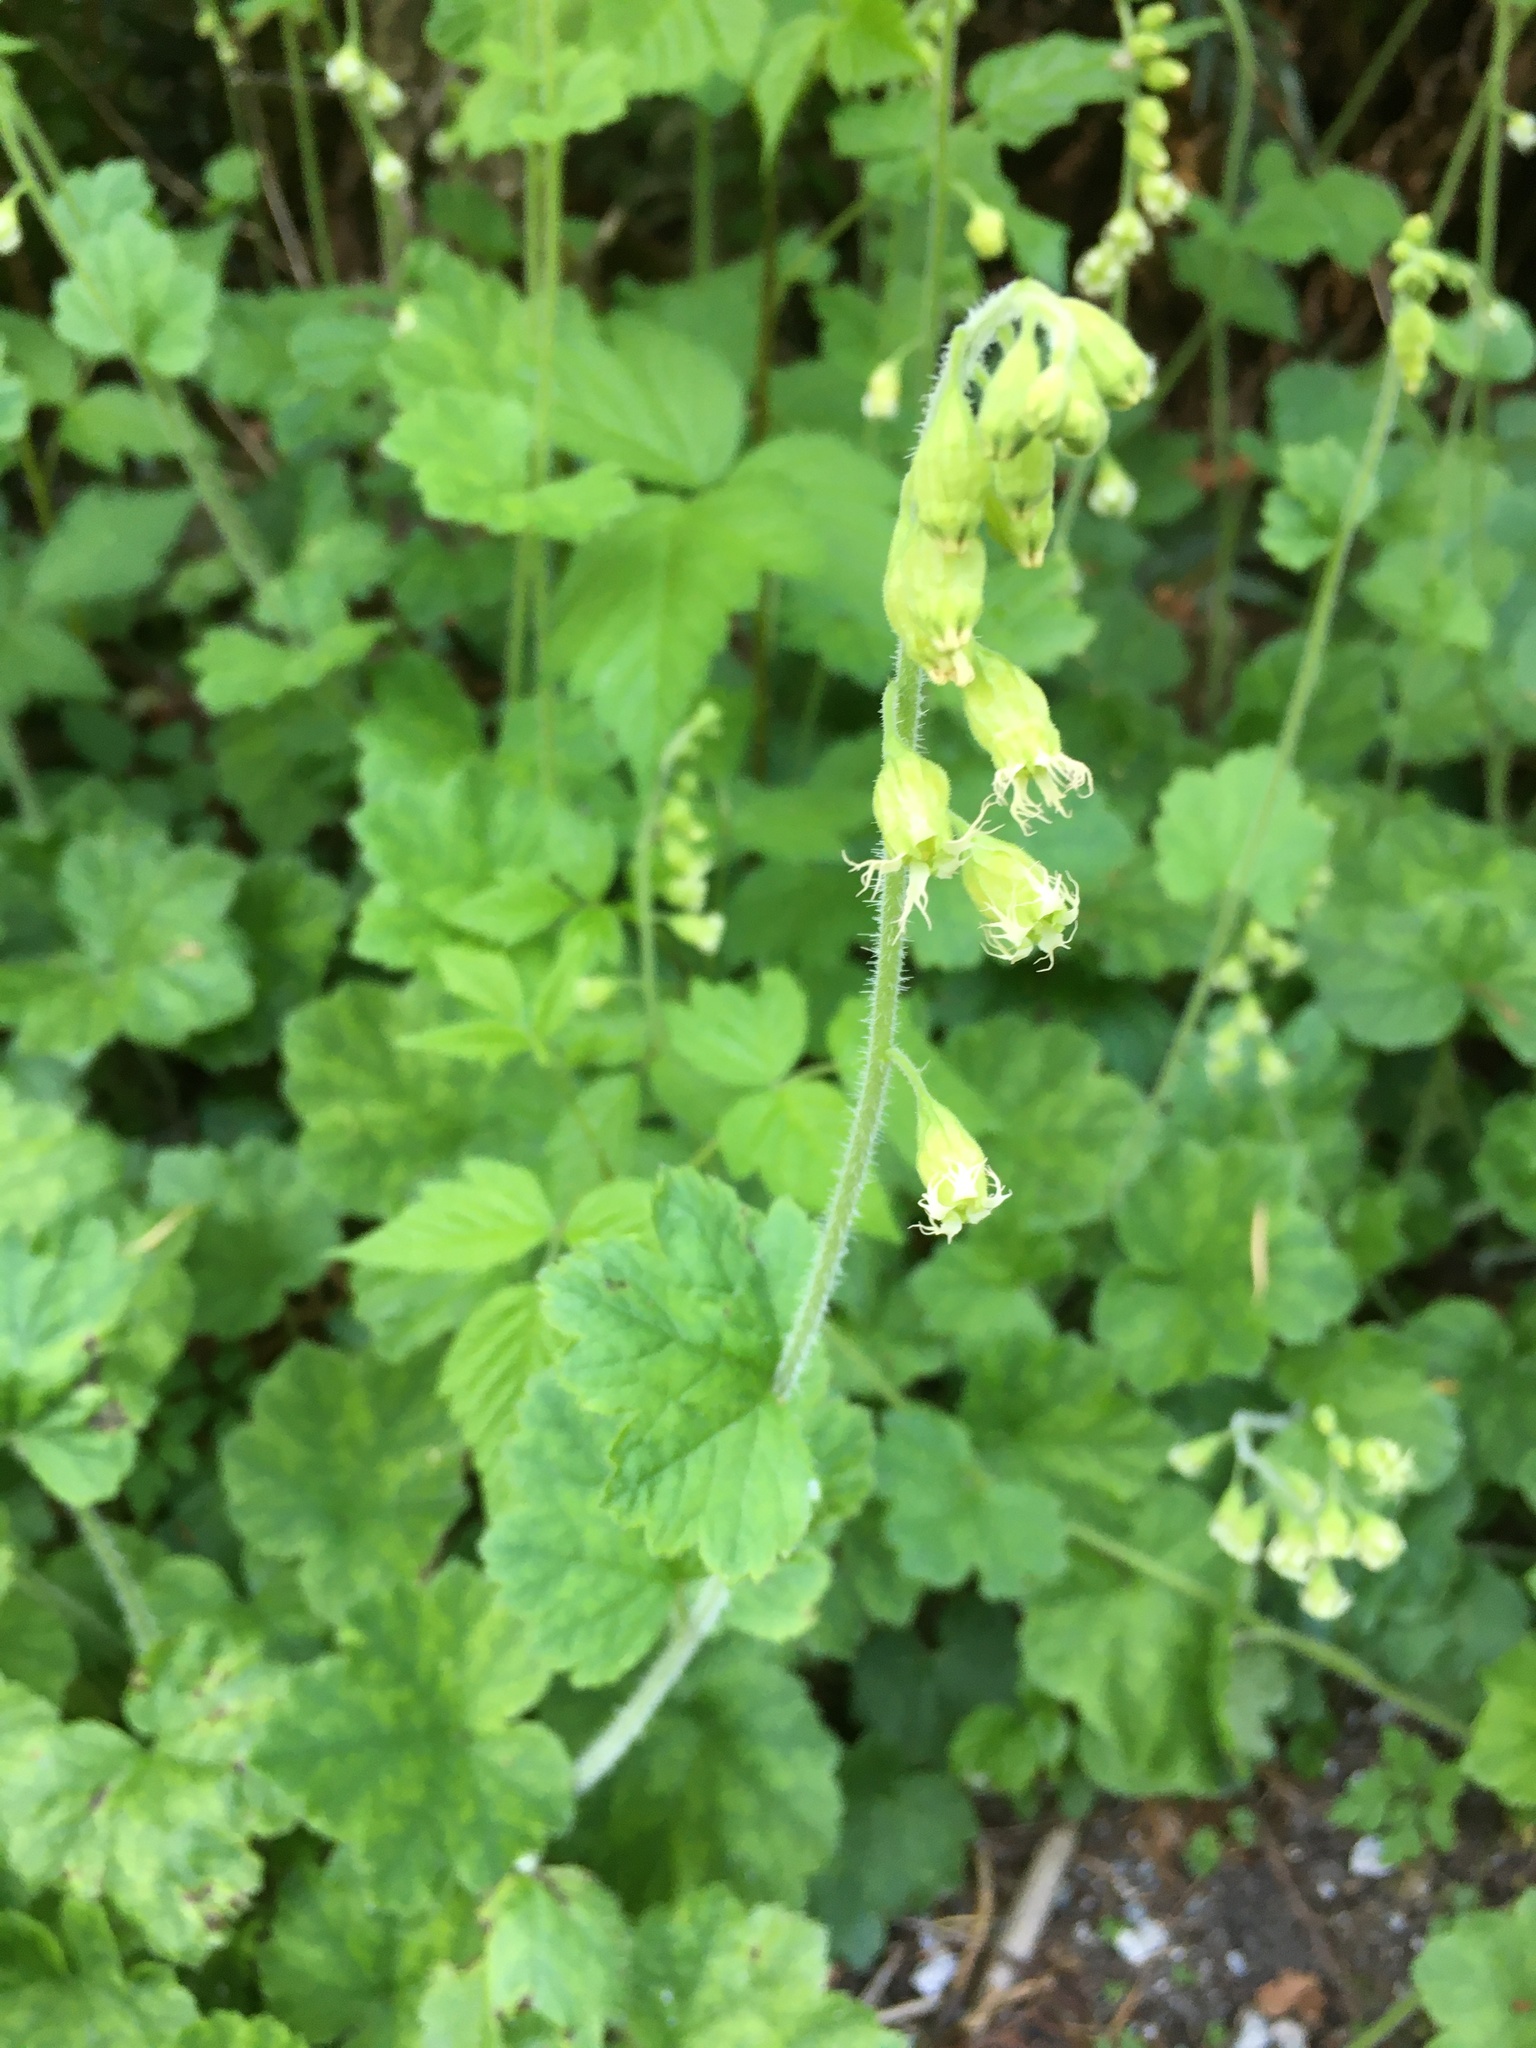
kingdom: Plantae
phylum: Tracheophyta
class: Magnoliopsida
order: Saxifragales
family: Saxifragaceae
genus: Tellima
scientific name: Tellima grandiflora
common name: Fringecups
